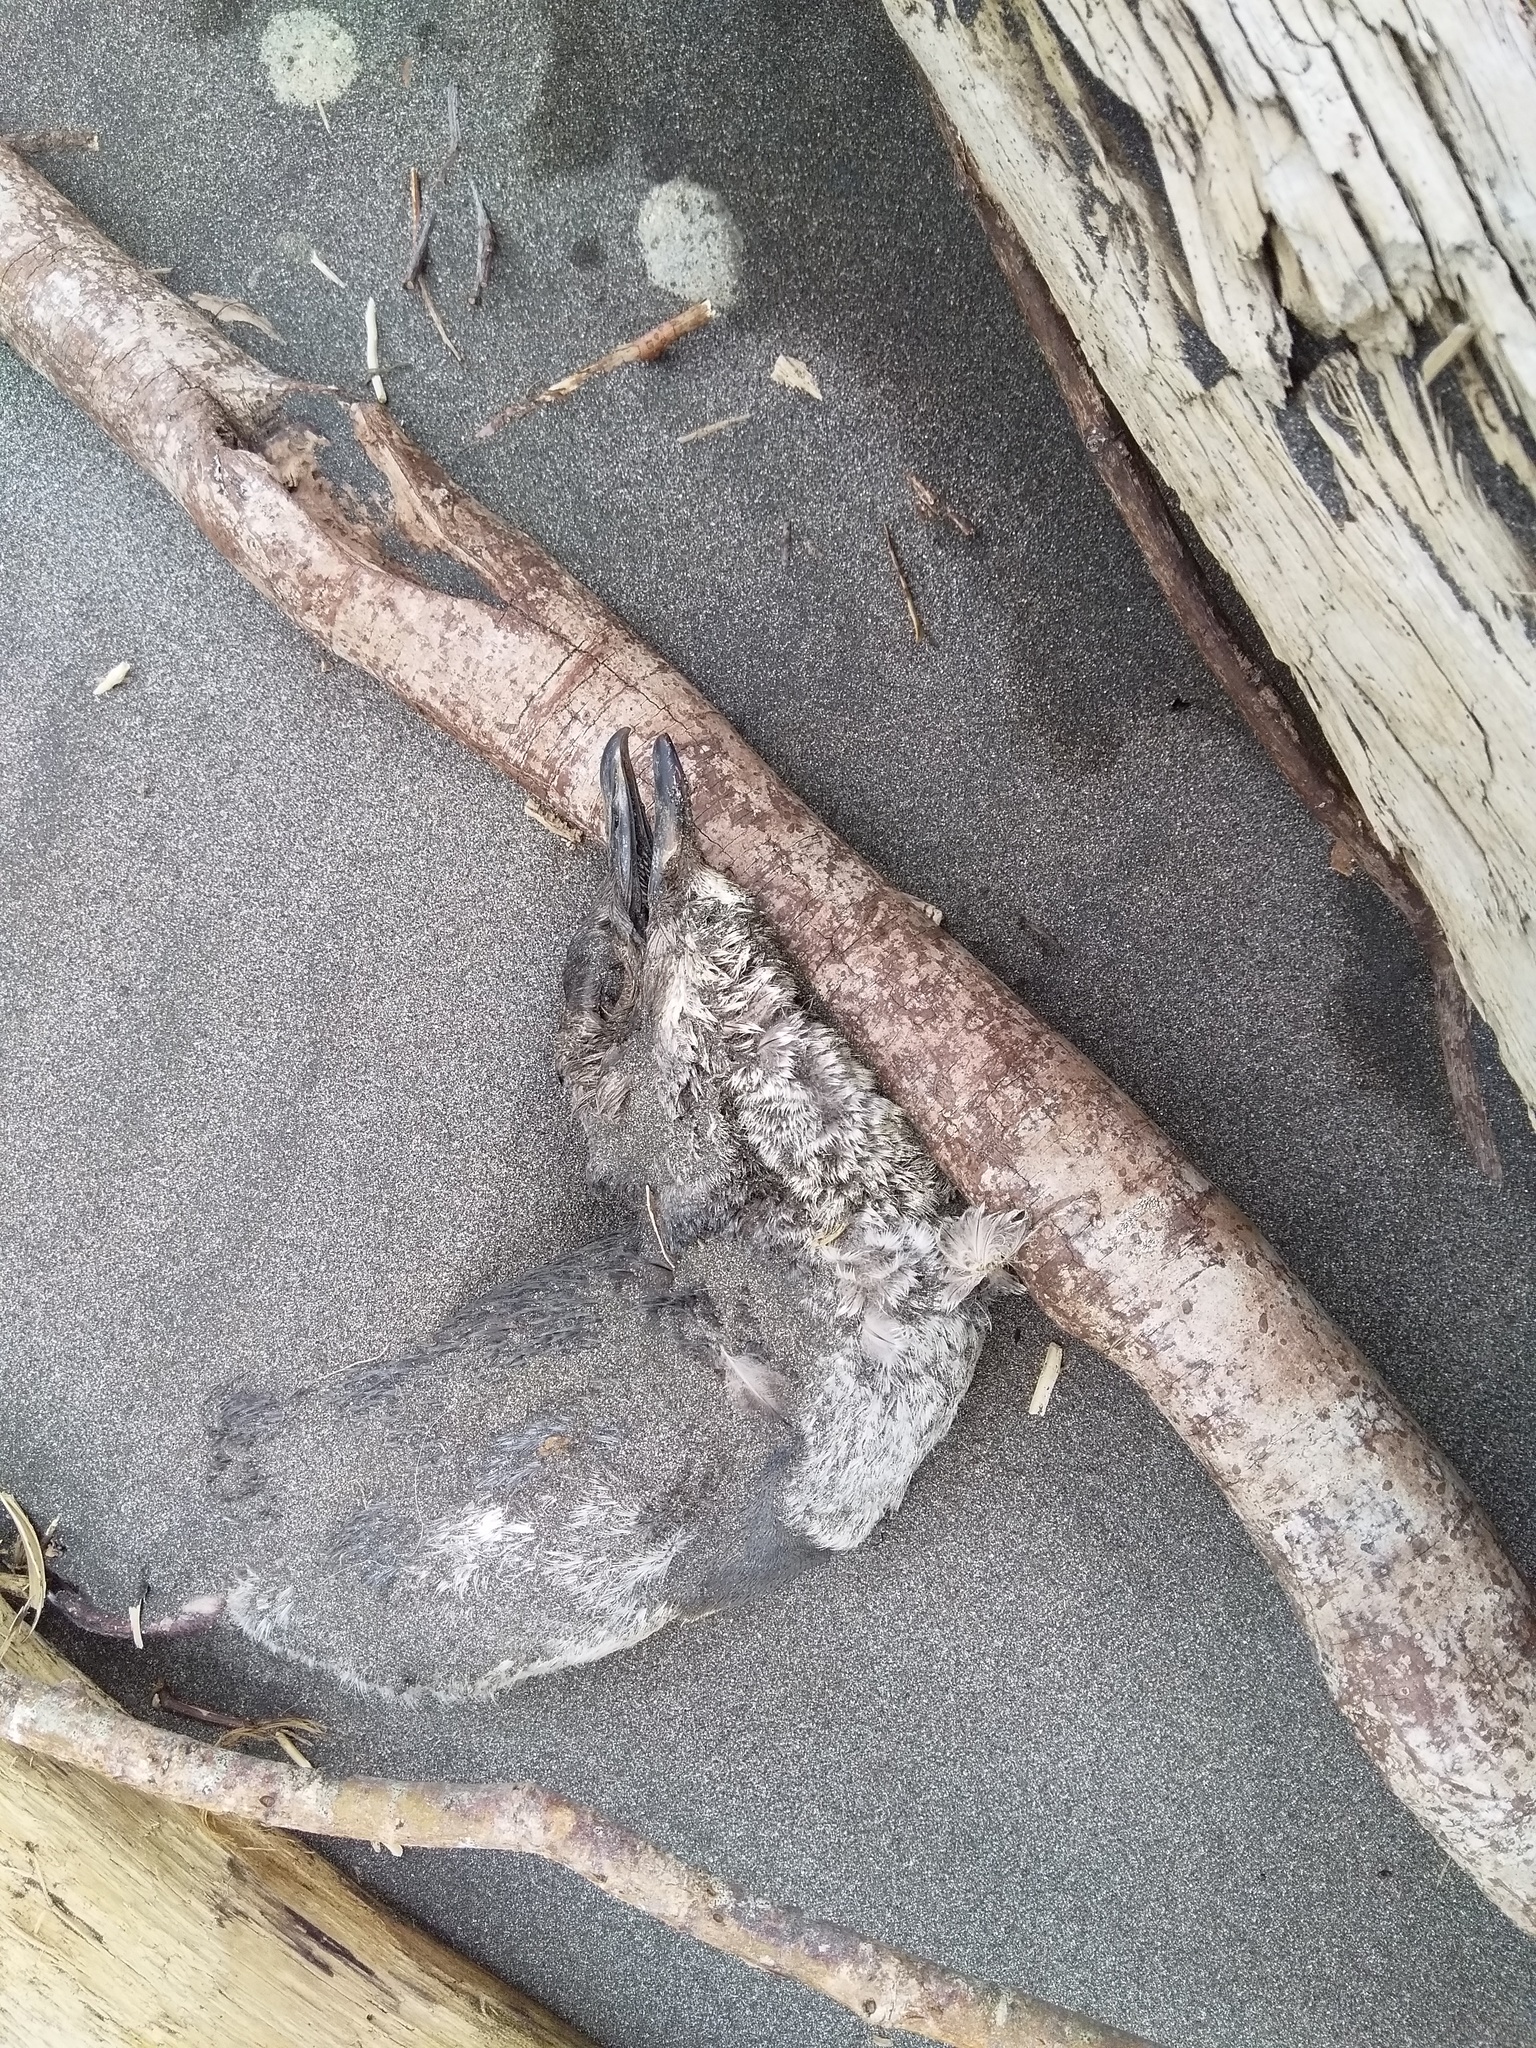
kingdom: Animalia
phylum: Chordata
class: Aves
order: Sphenisciformes
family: Spheniscidae
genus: Eudyptula
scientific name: Eudyptula minor
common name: Little penguin
